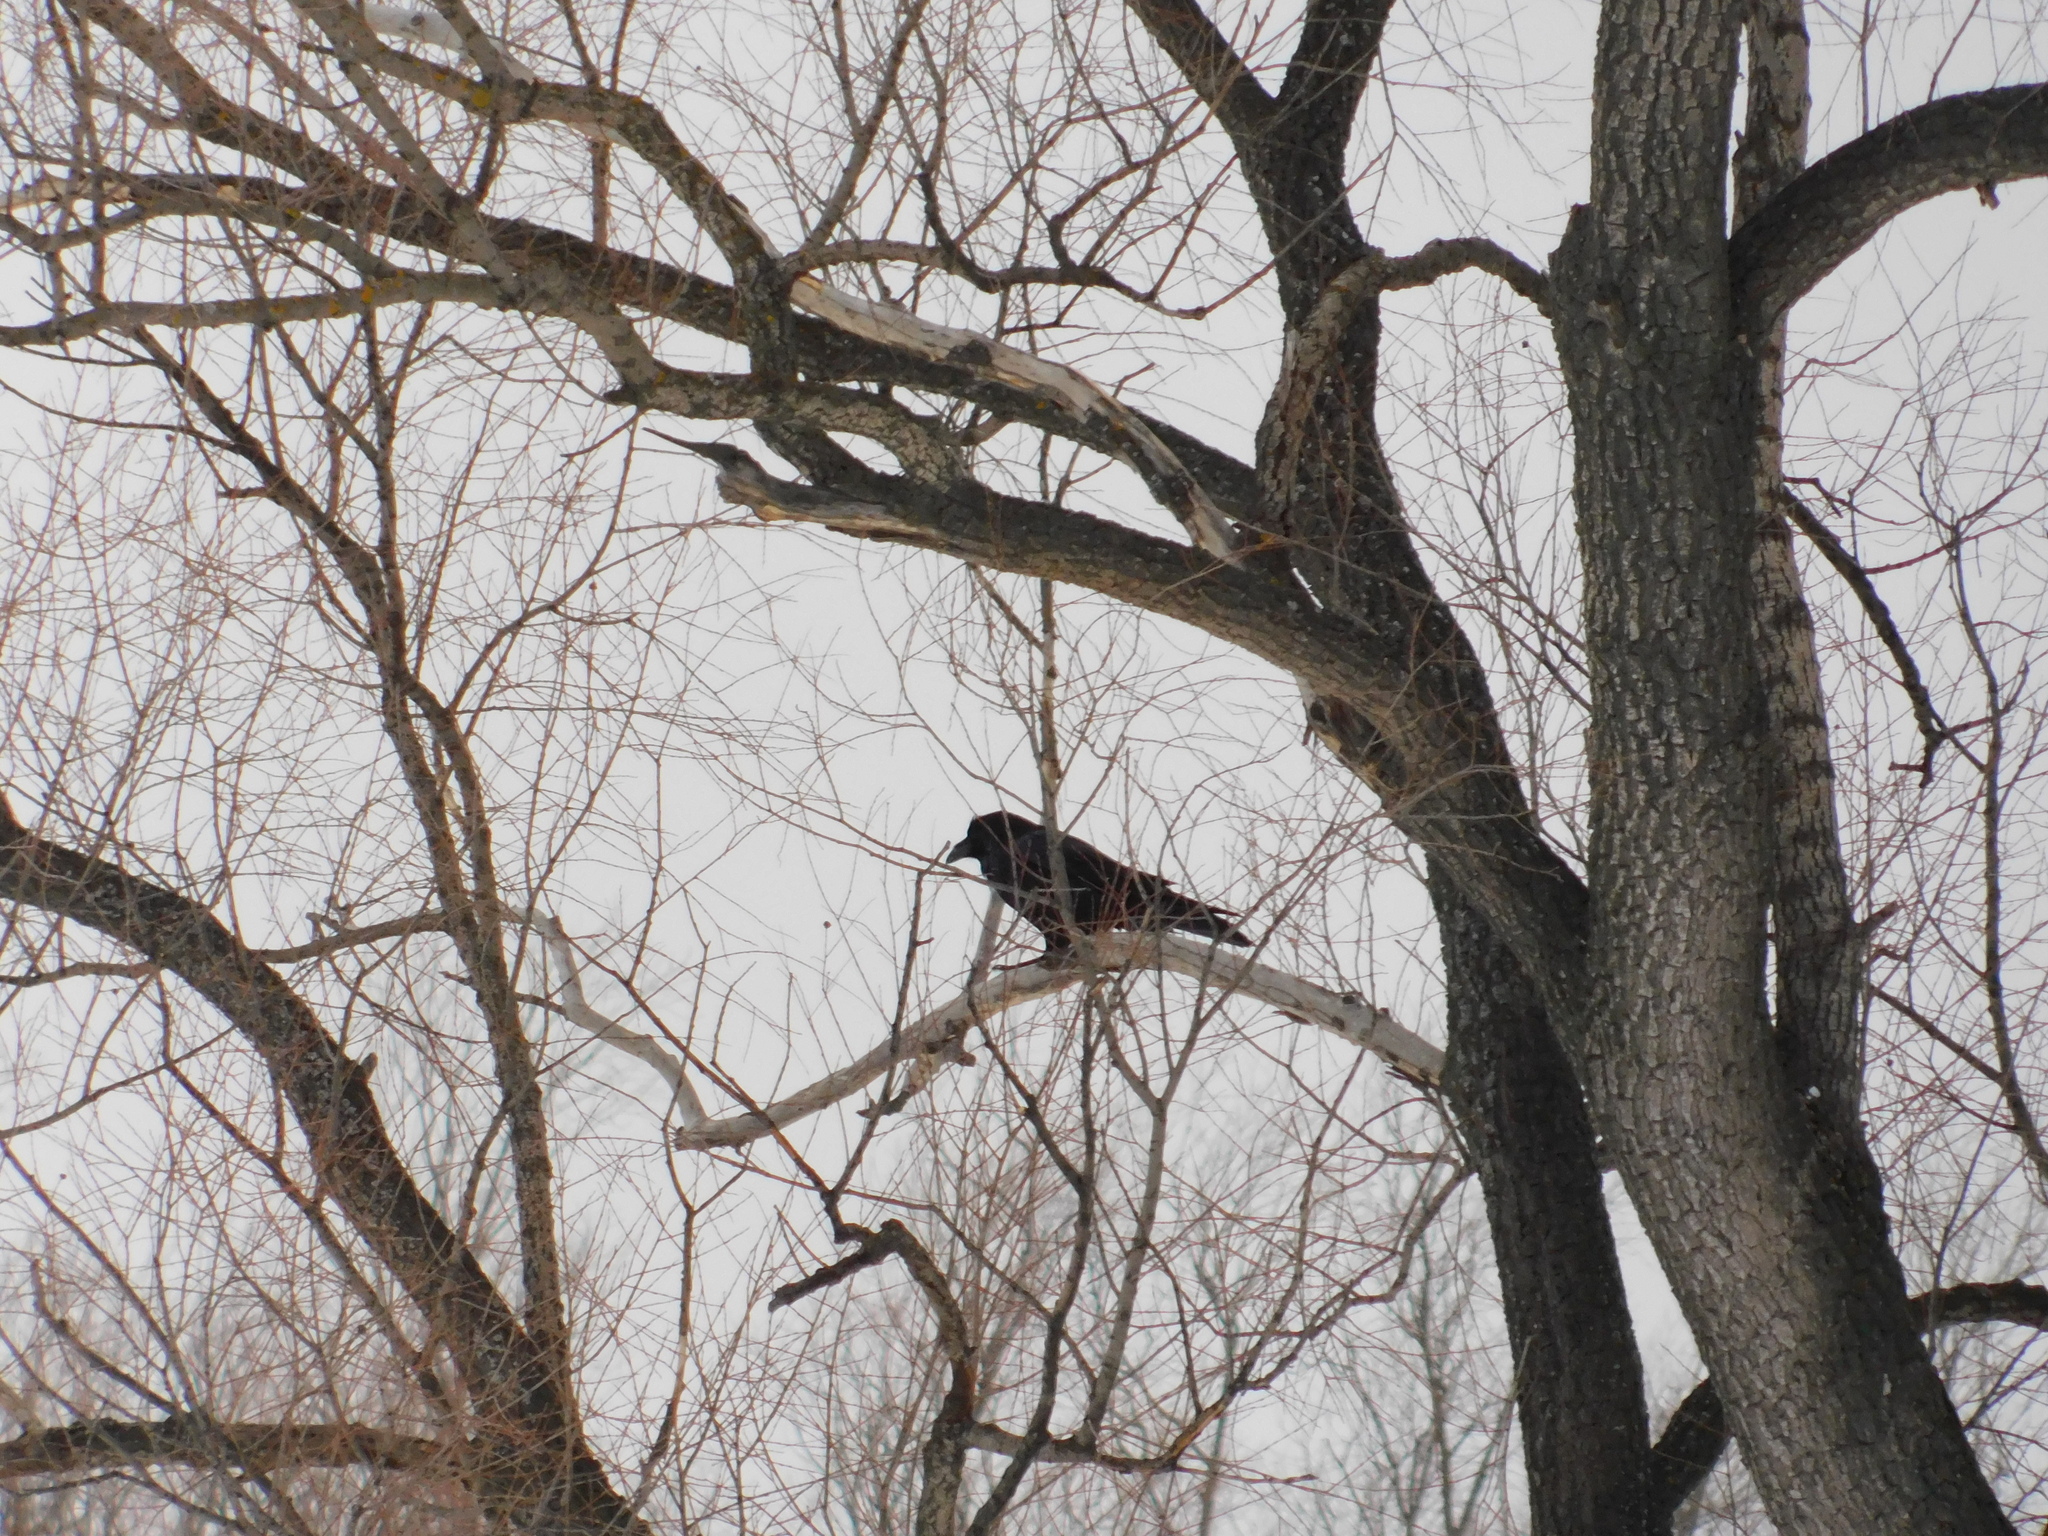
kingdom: Animalia
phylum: Chordata
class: Aves
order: Passeriformes
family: Corvidae
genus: Corvus
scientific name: Corvus corax
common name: Common raven
